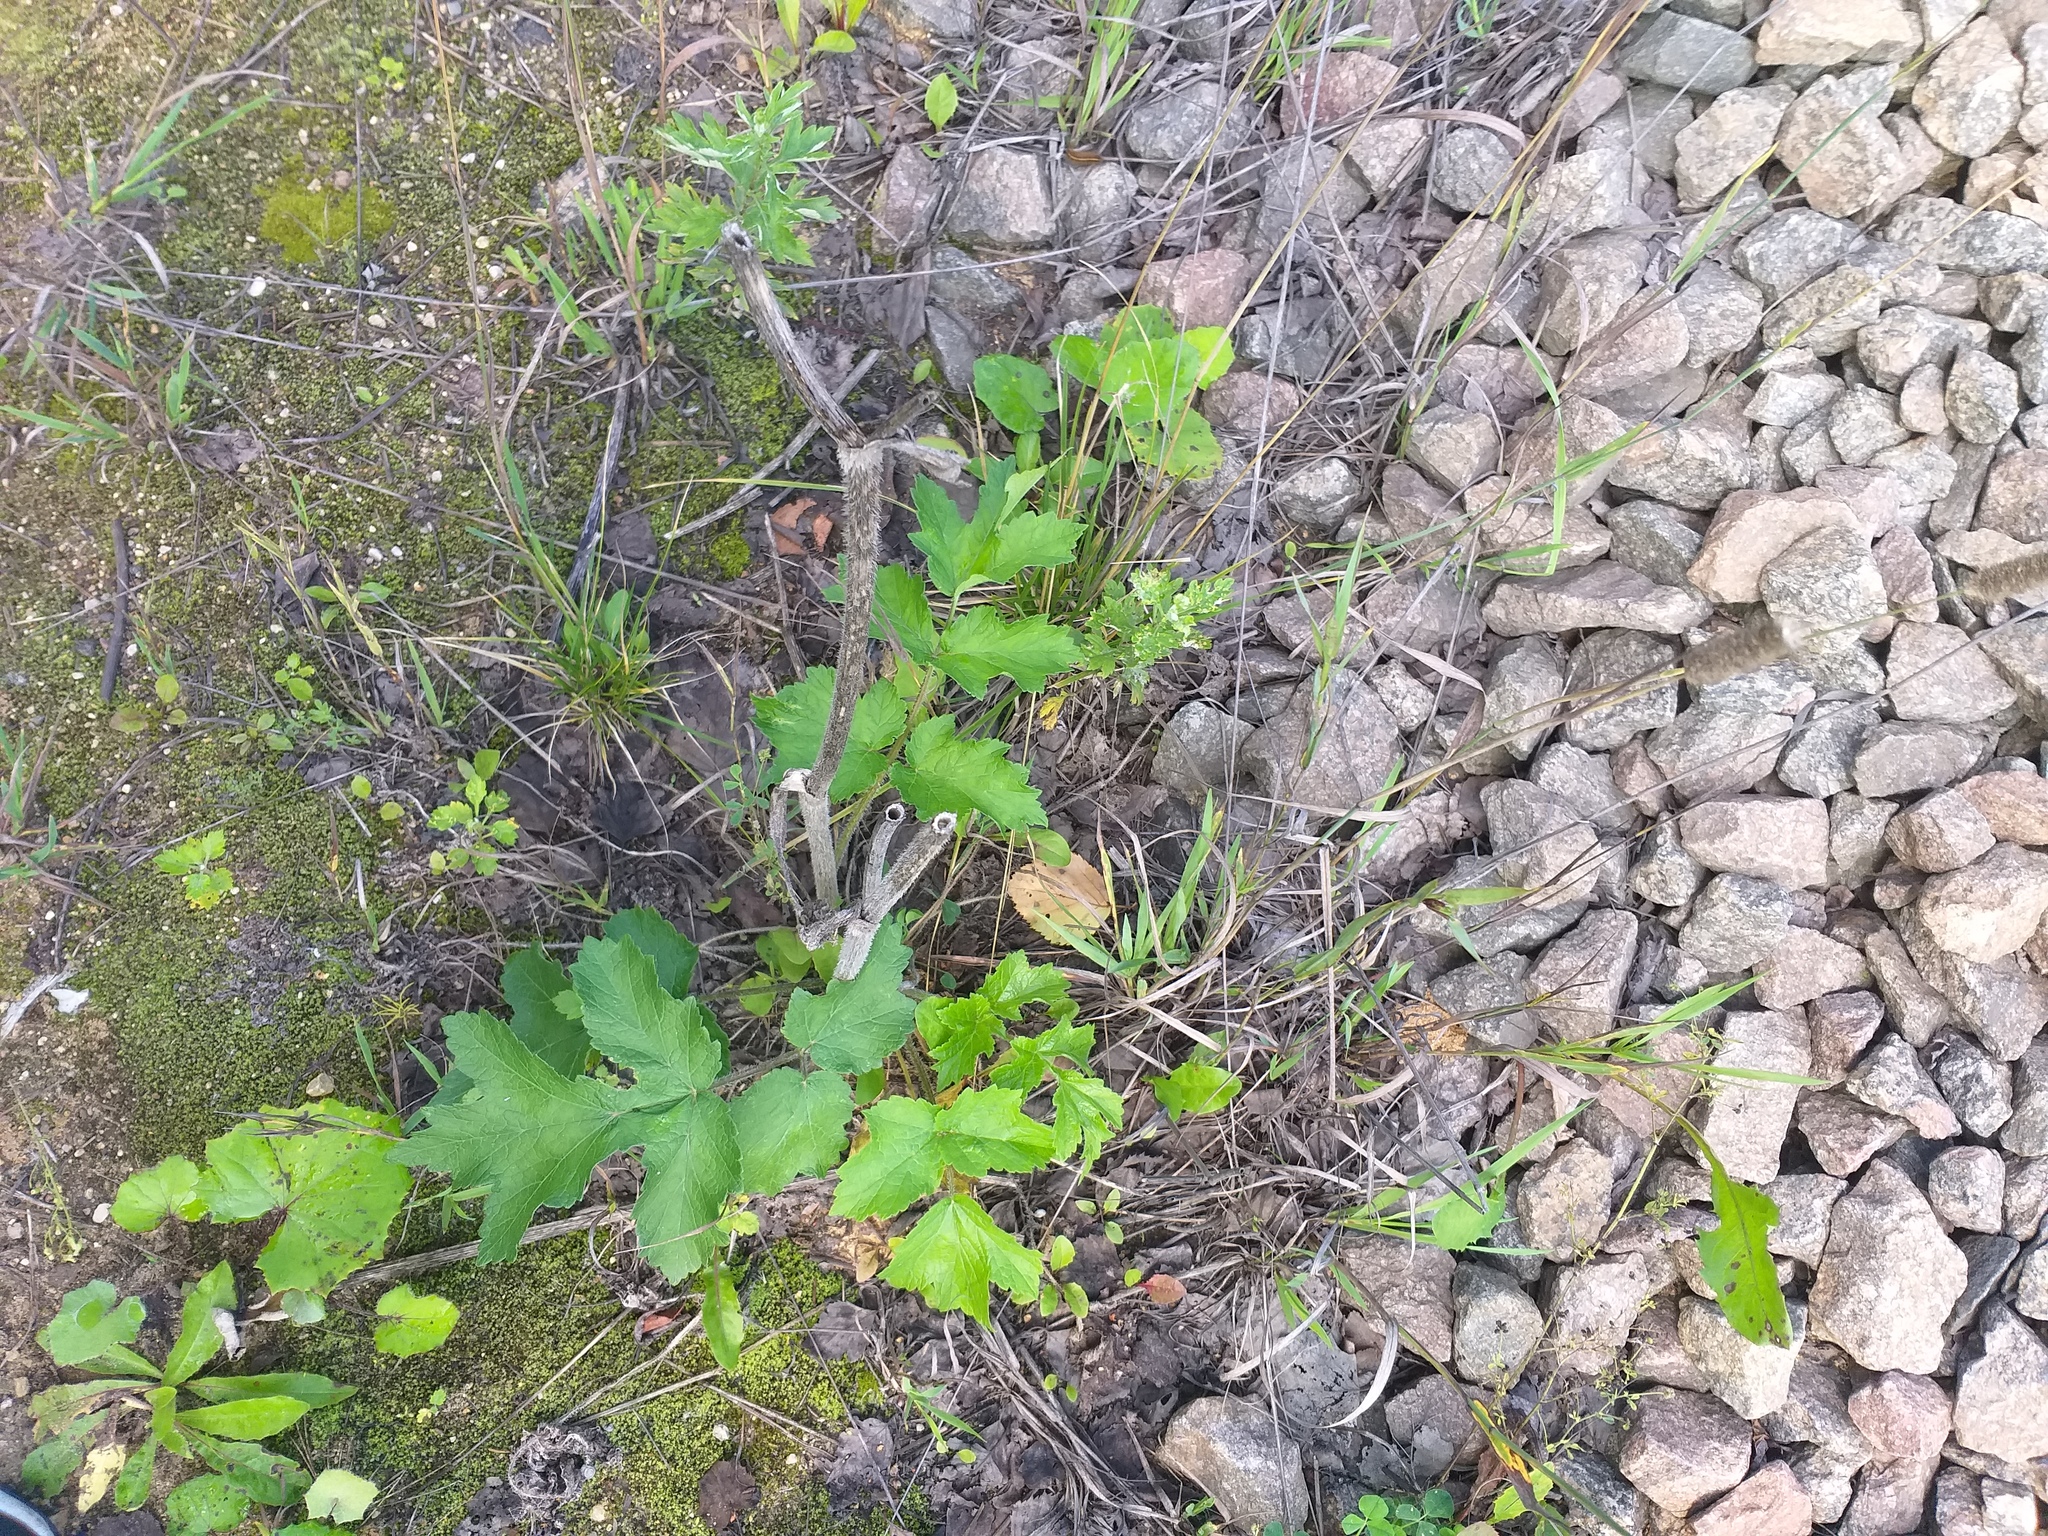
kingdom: Plantae
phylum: Tracheophyta
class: Magnoliopsida
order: Apiales
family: Apiaceae
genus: Heracleum
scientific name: Heracleum sphondylium
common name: Hogweed
